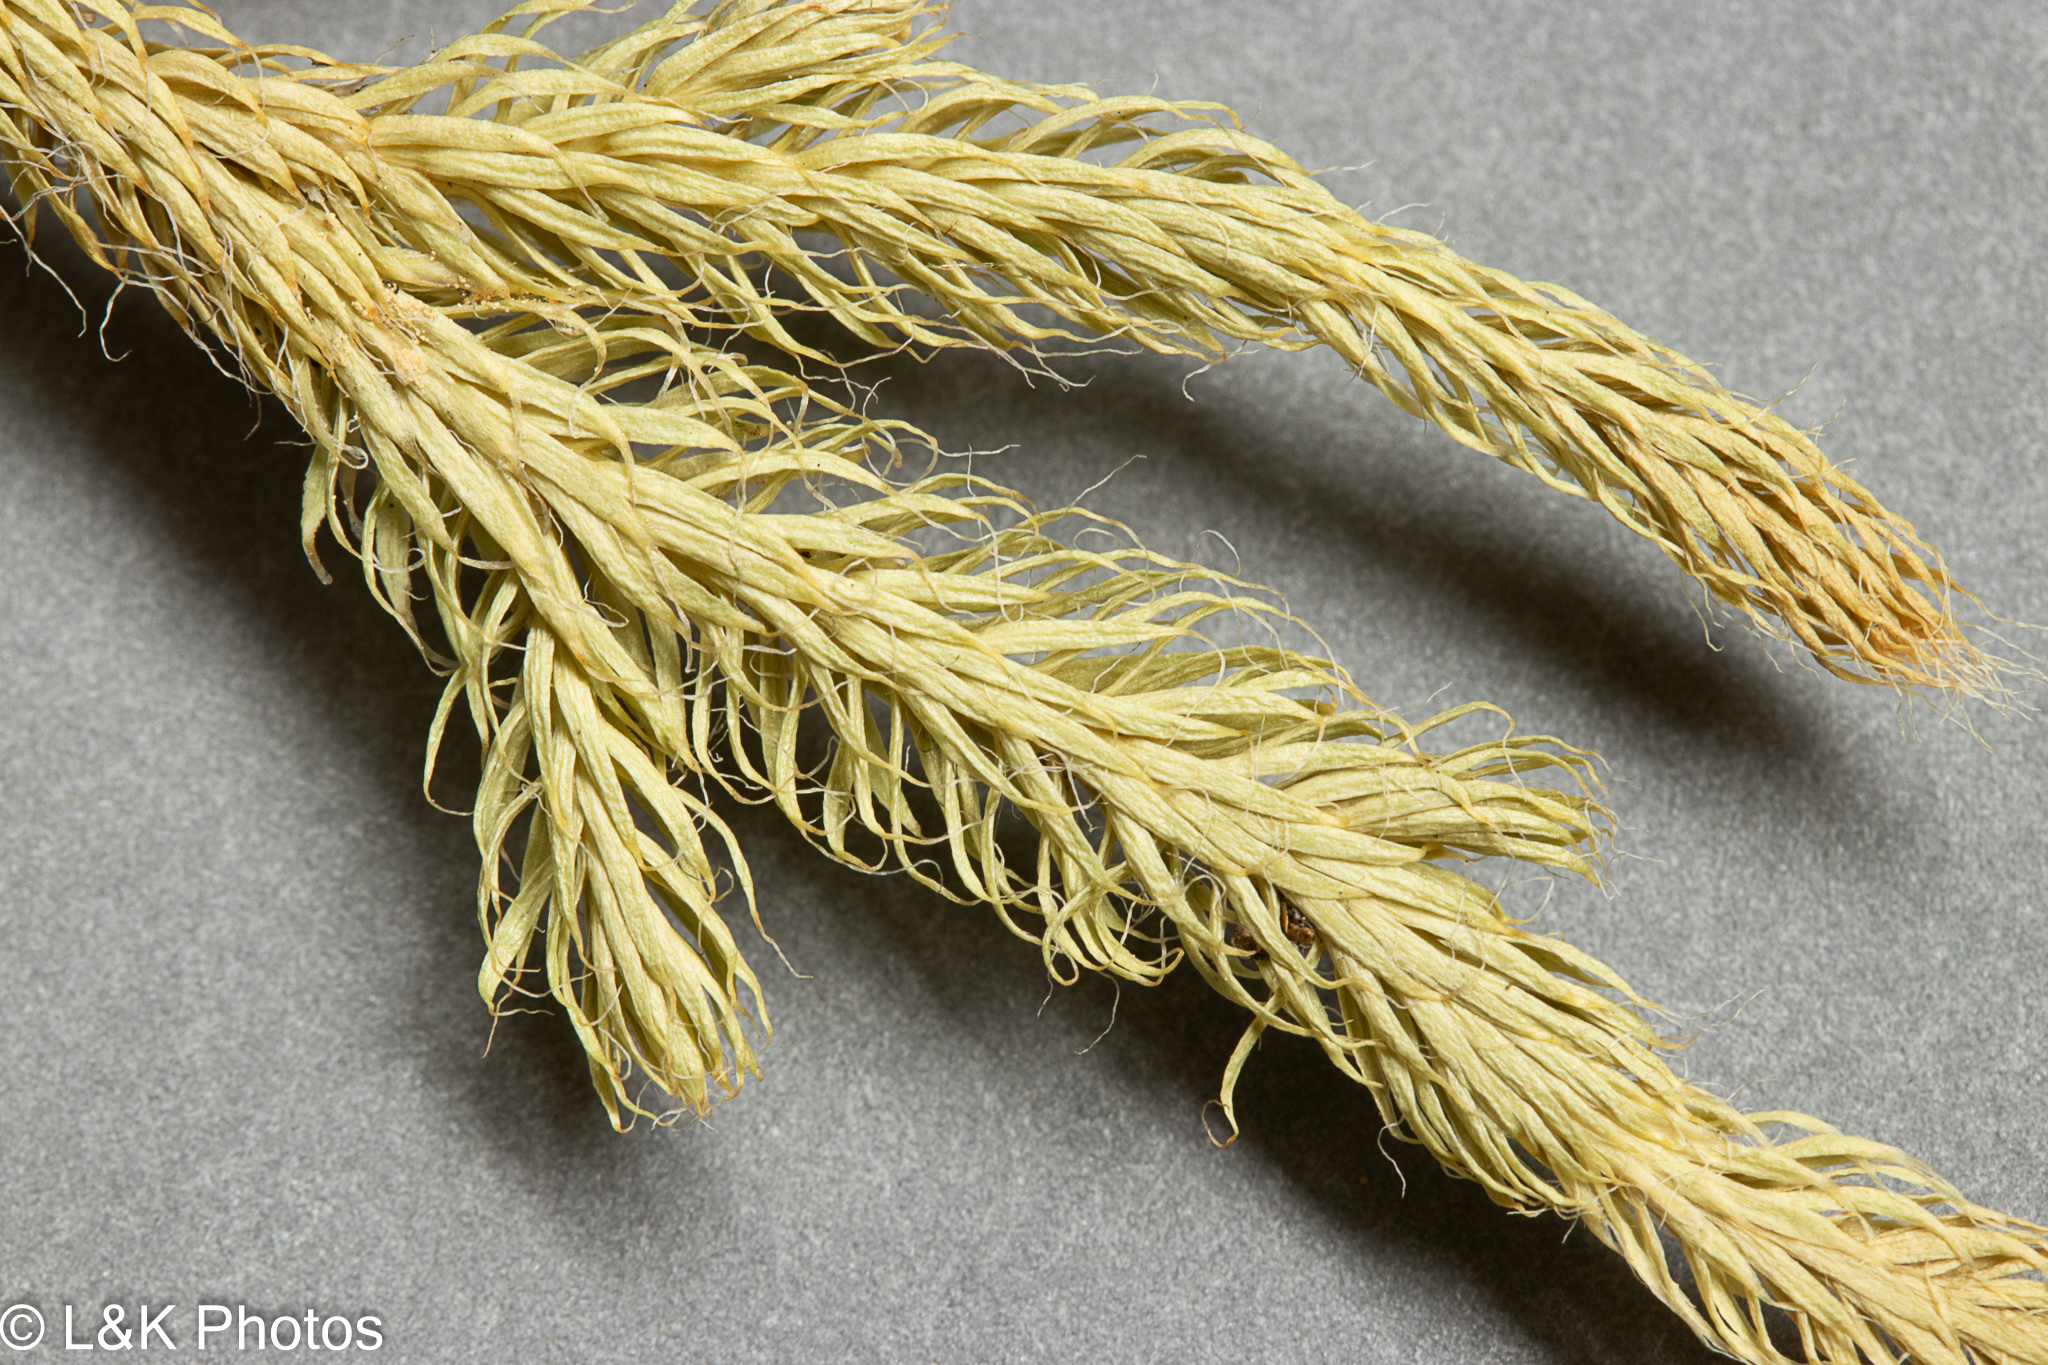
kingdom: Plantae
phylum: Tracheophyta
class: Lycopodiopsida
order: Lycopodiales
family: Lycopodiaceae
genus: Lycopodium
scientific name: Lycopodium lagopus
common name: One-cone clubmoss
